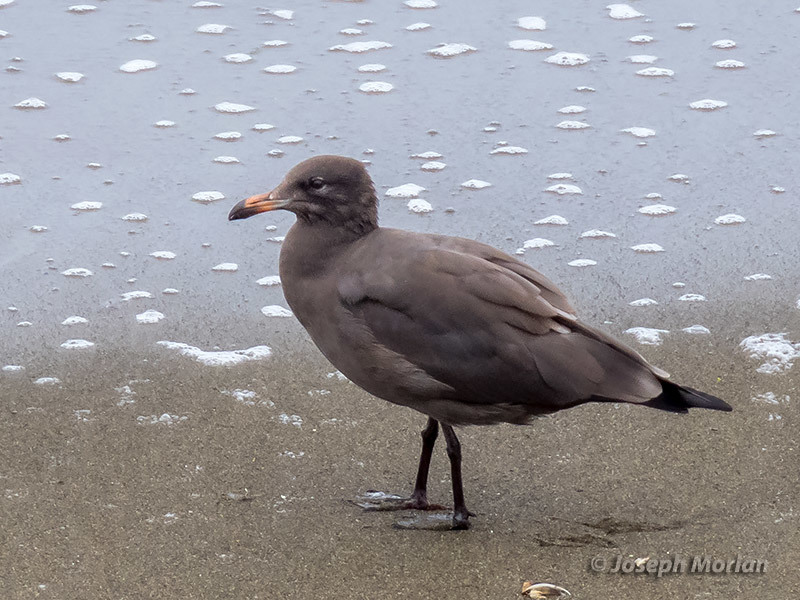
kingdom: Animalia
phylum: Chordata
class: Aves
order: Charadriiformes
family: Laridae
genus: Larus
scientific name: Larus heermanni
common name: Heermann's gull
